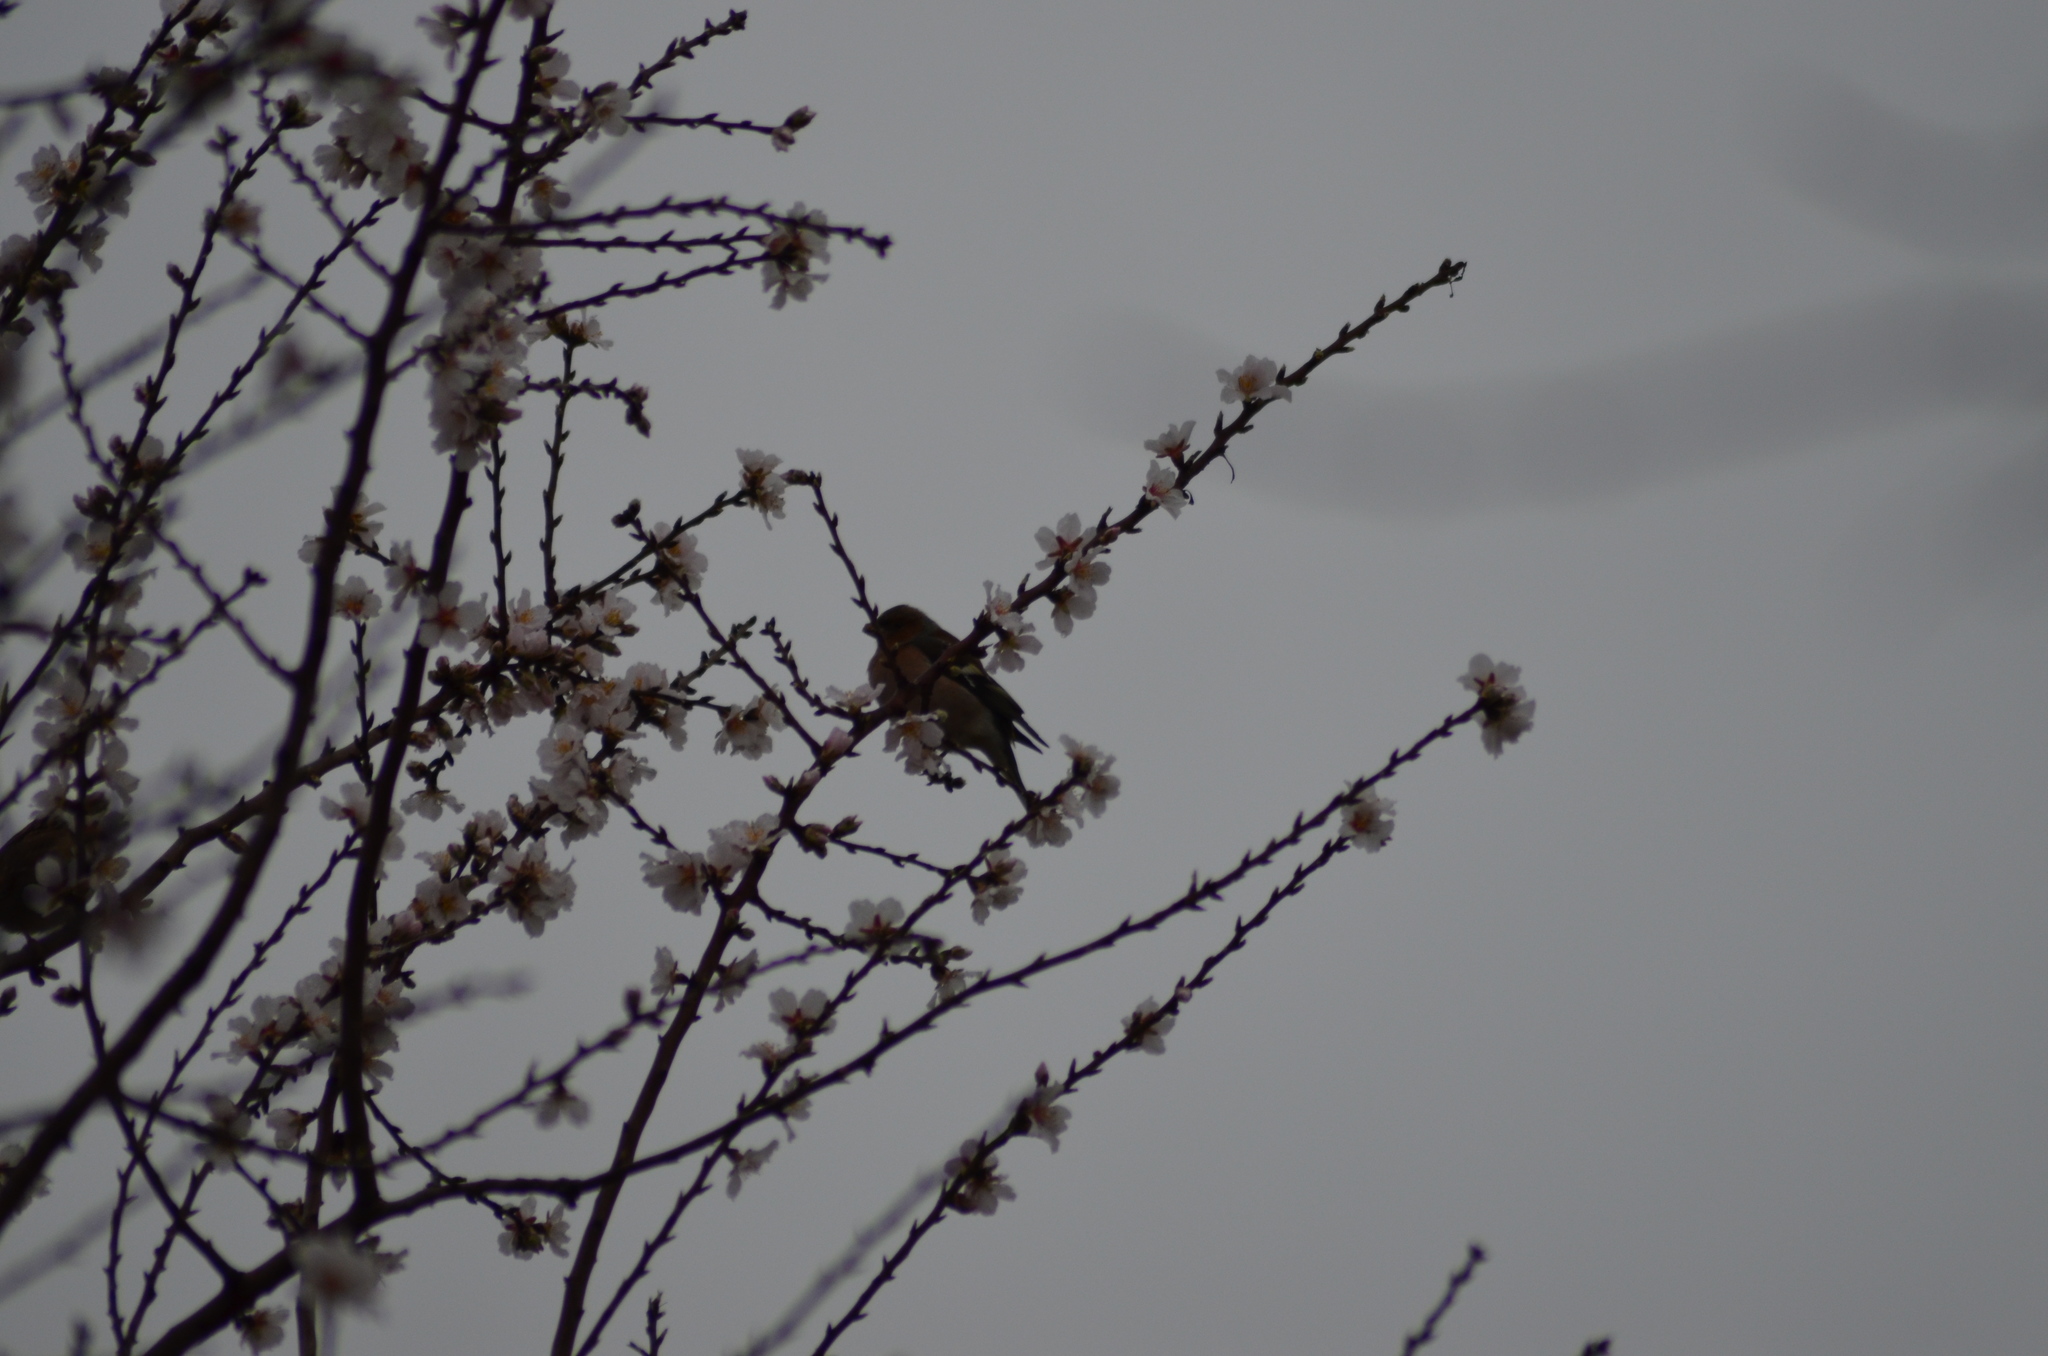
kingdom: Animalia
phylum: Chordata
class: Aves
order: Passeriformes
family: Fringillidae
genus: Fringilla
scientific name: Fringilla coelebs
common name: Common chaffinch
